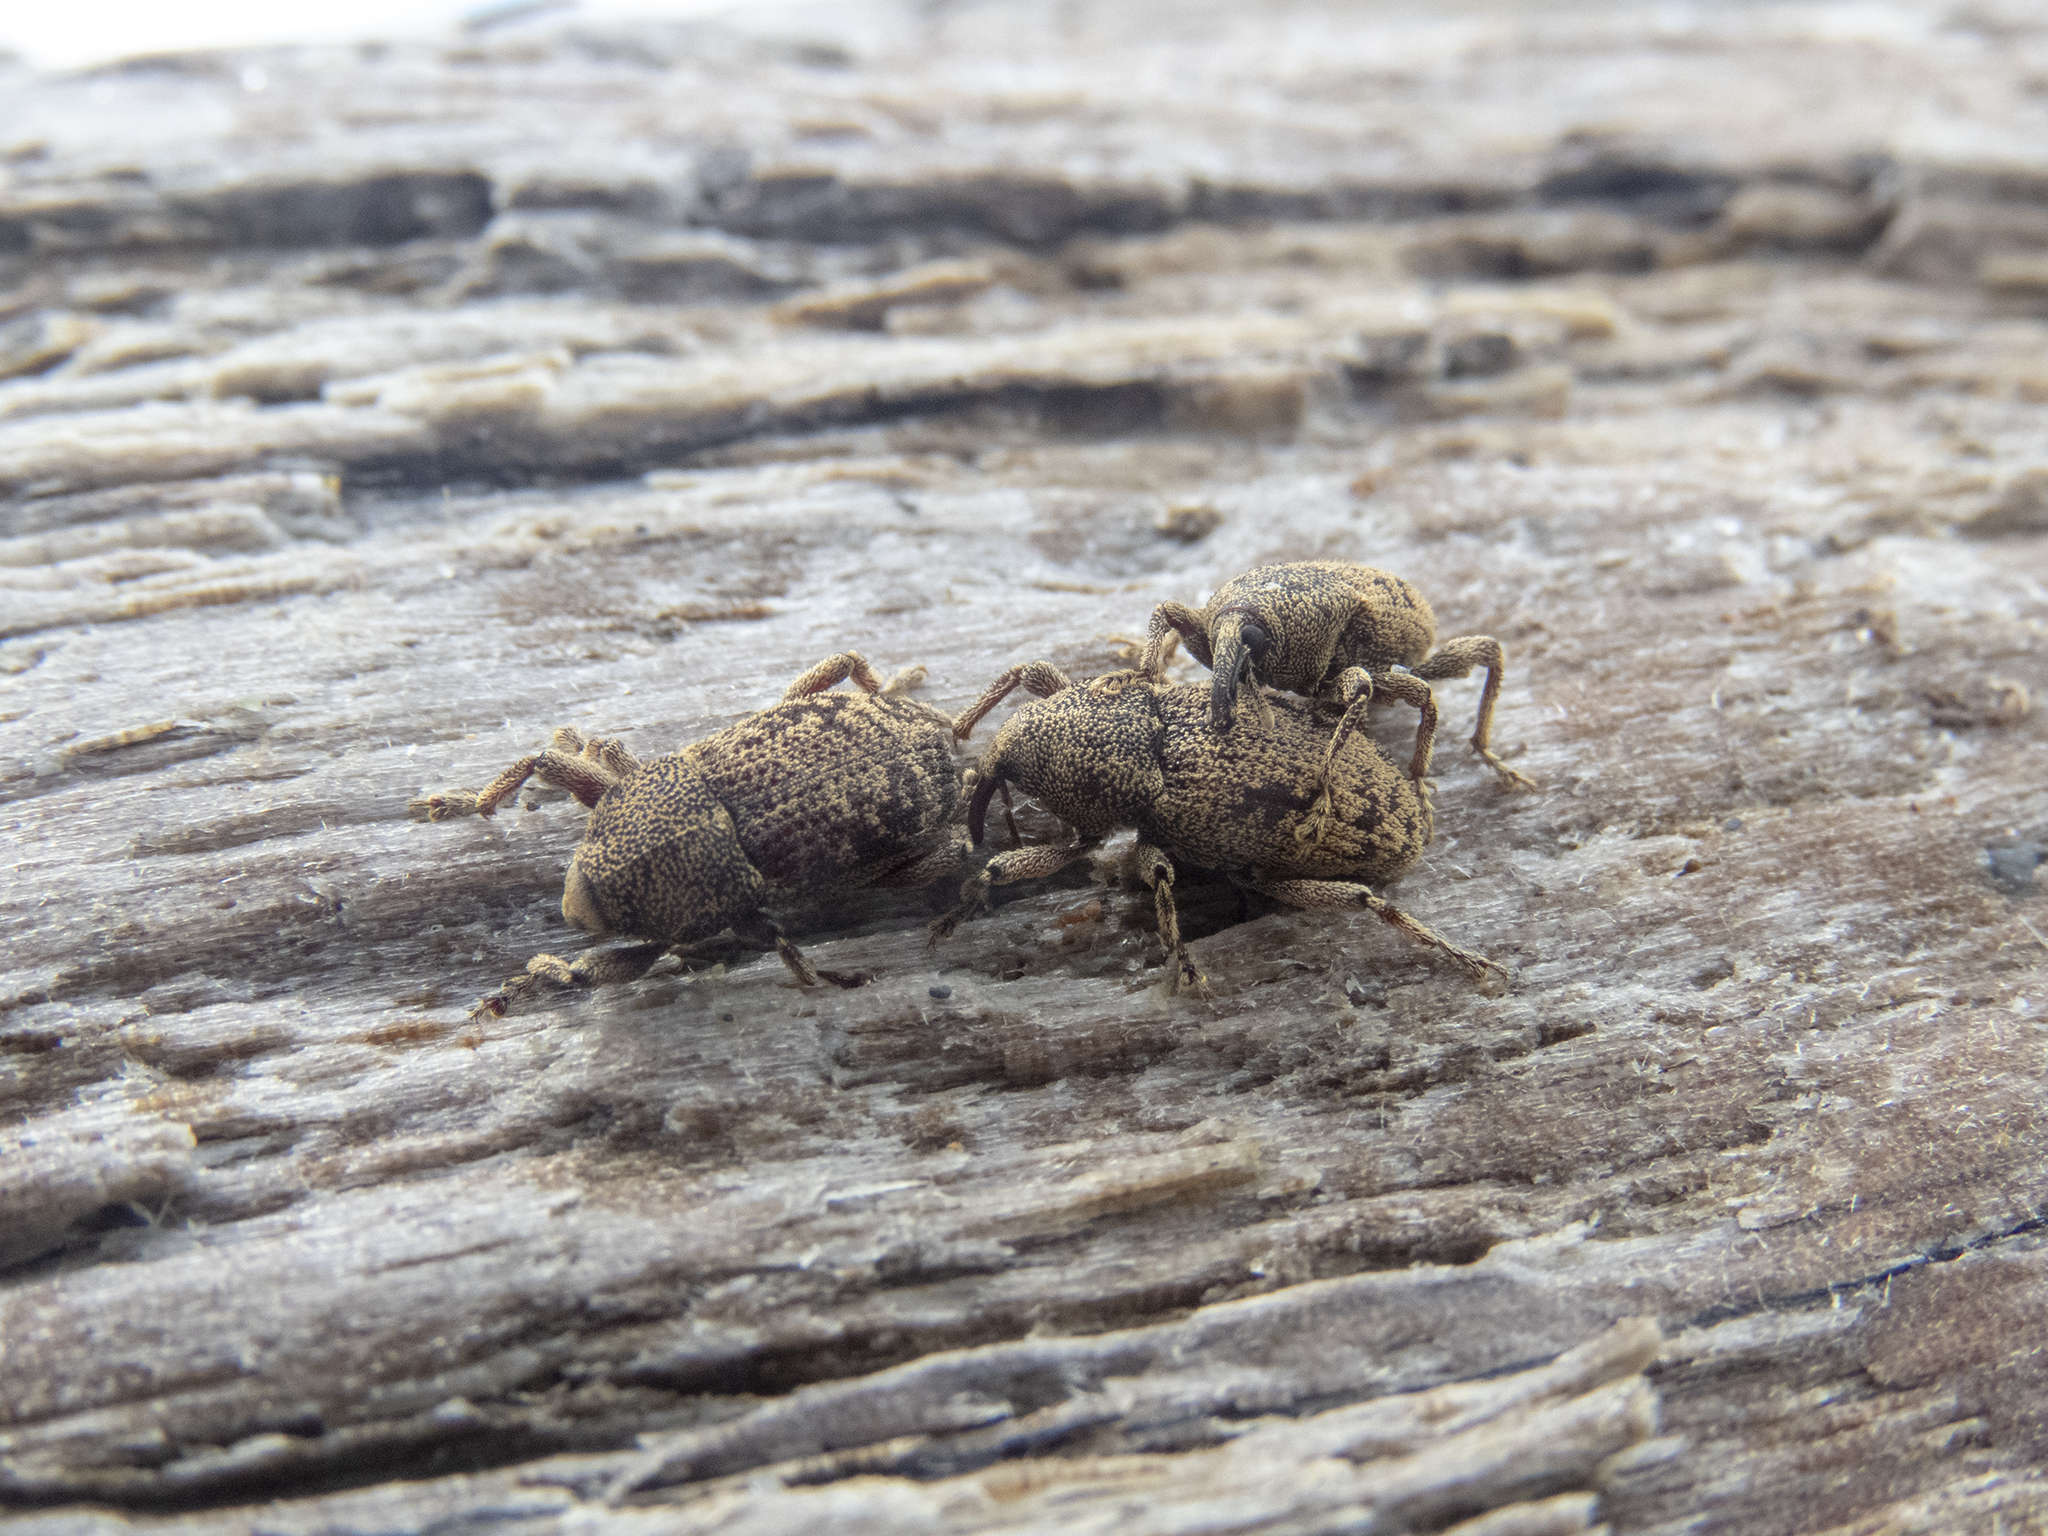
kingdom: Animalia
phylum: Arthropoda
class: Insecta
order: Coleoptera
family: Curculionidae
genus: Strongylopterus
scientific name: Strongylopterus hylopioides
